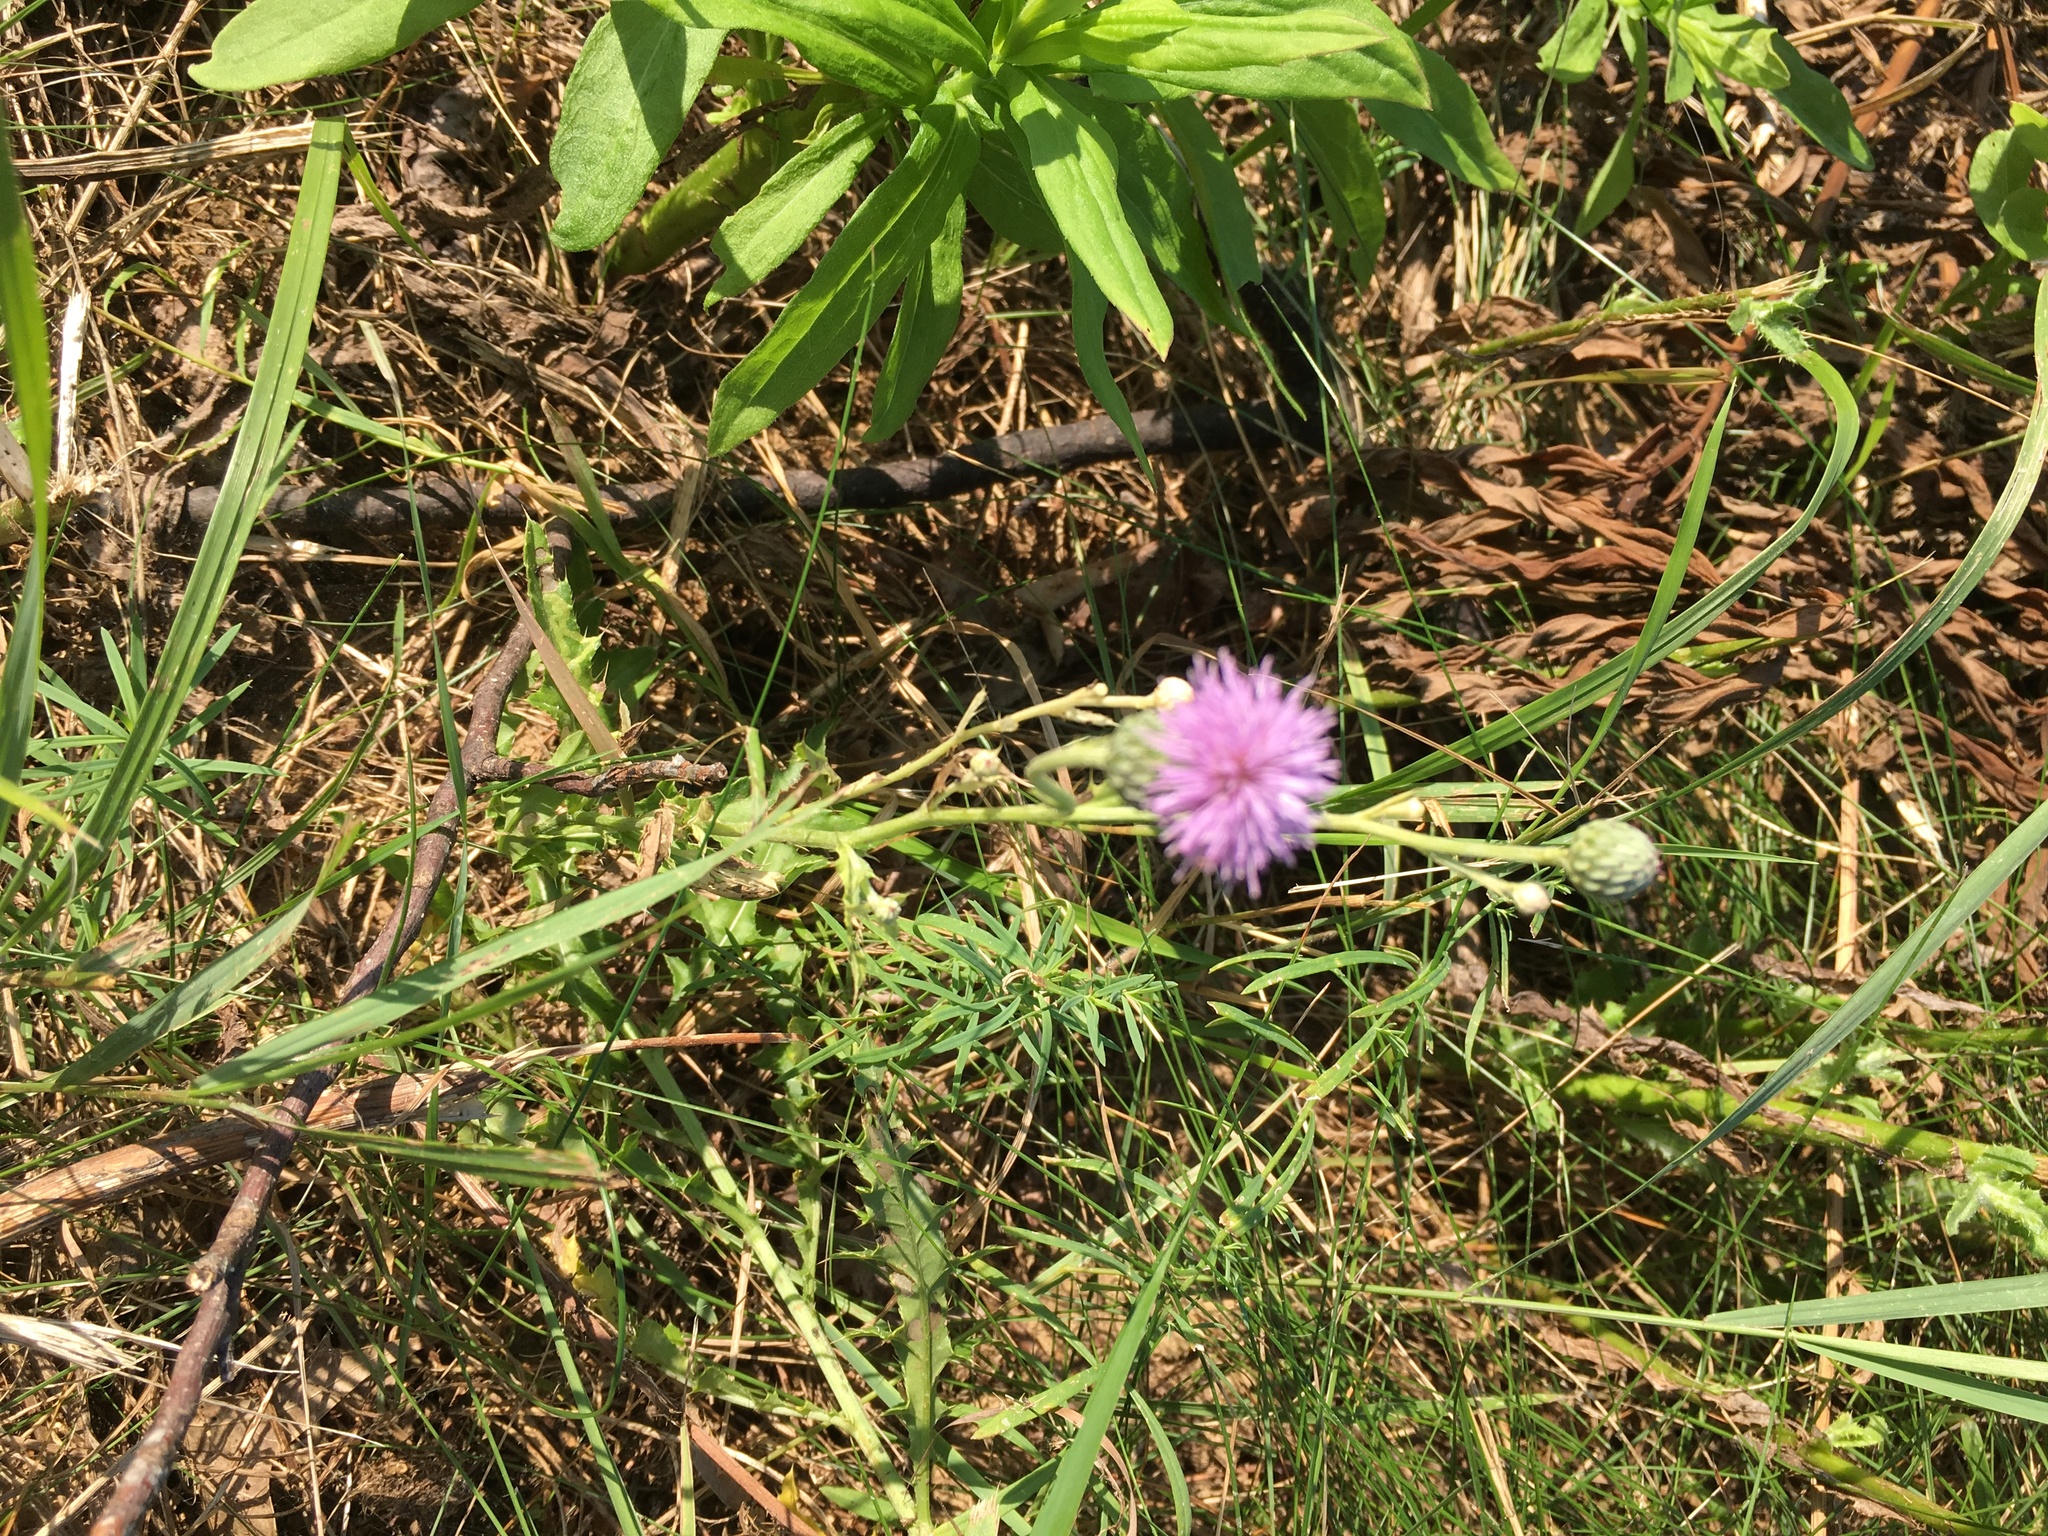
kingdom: Plantae
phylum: Tracheophyta
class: Magnoliopsida
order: Asterales
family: Asteraceae
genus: Cirsium
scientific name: Cirsium arvense
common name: Creeping thistle
